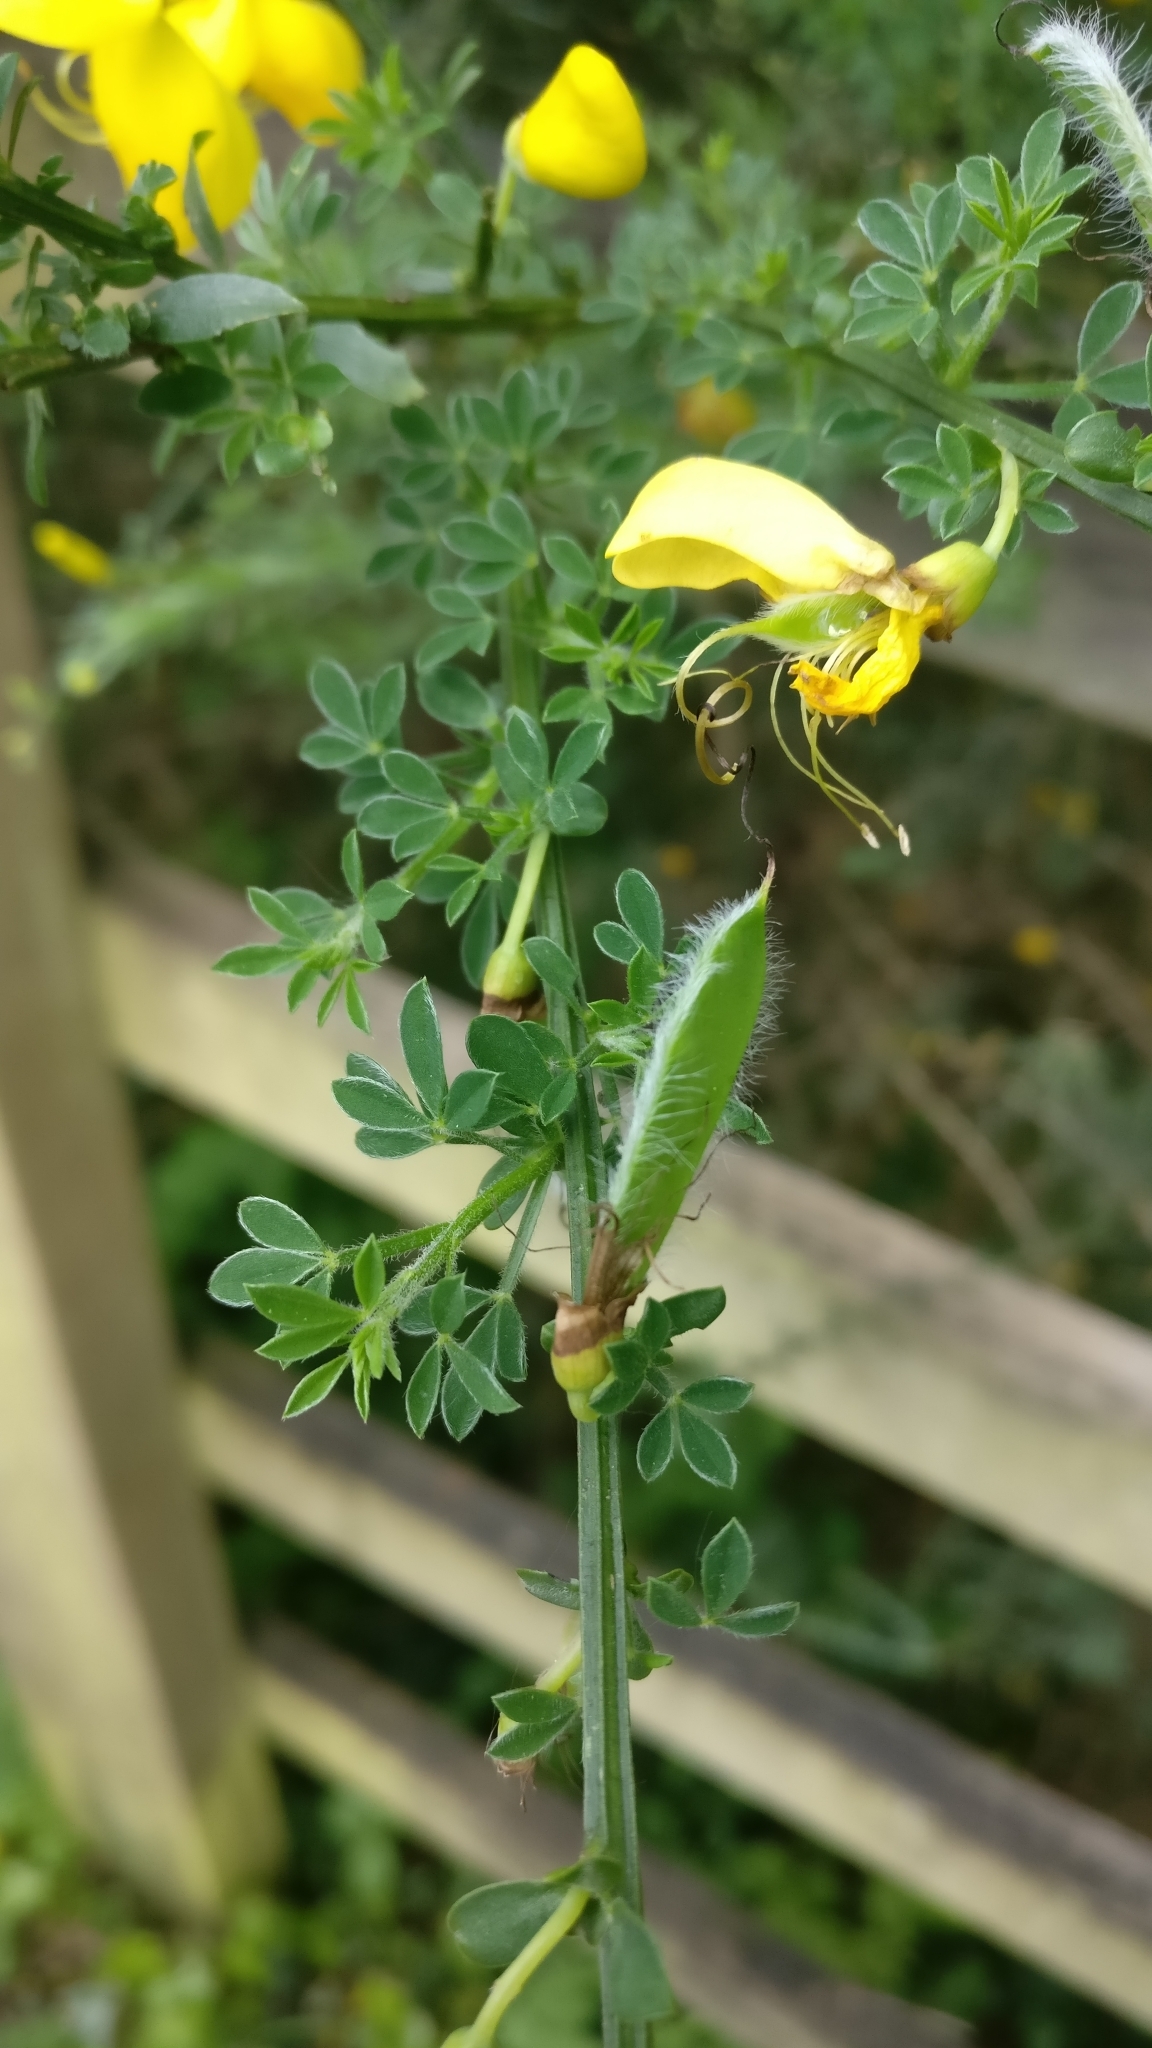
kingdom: Plantae
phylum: Tracheophyta
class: Magnoliopsida
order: Fabales
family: Fabaceae
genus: Cytisus
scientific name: Cytisus scoparius
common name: Scotch broom
